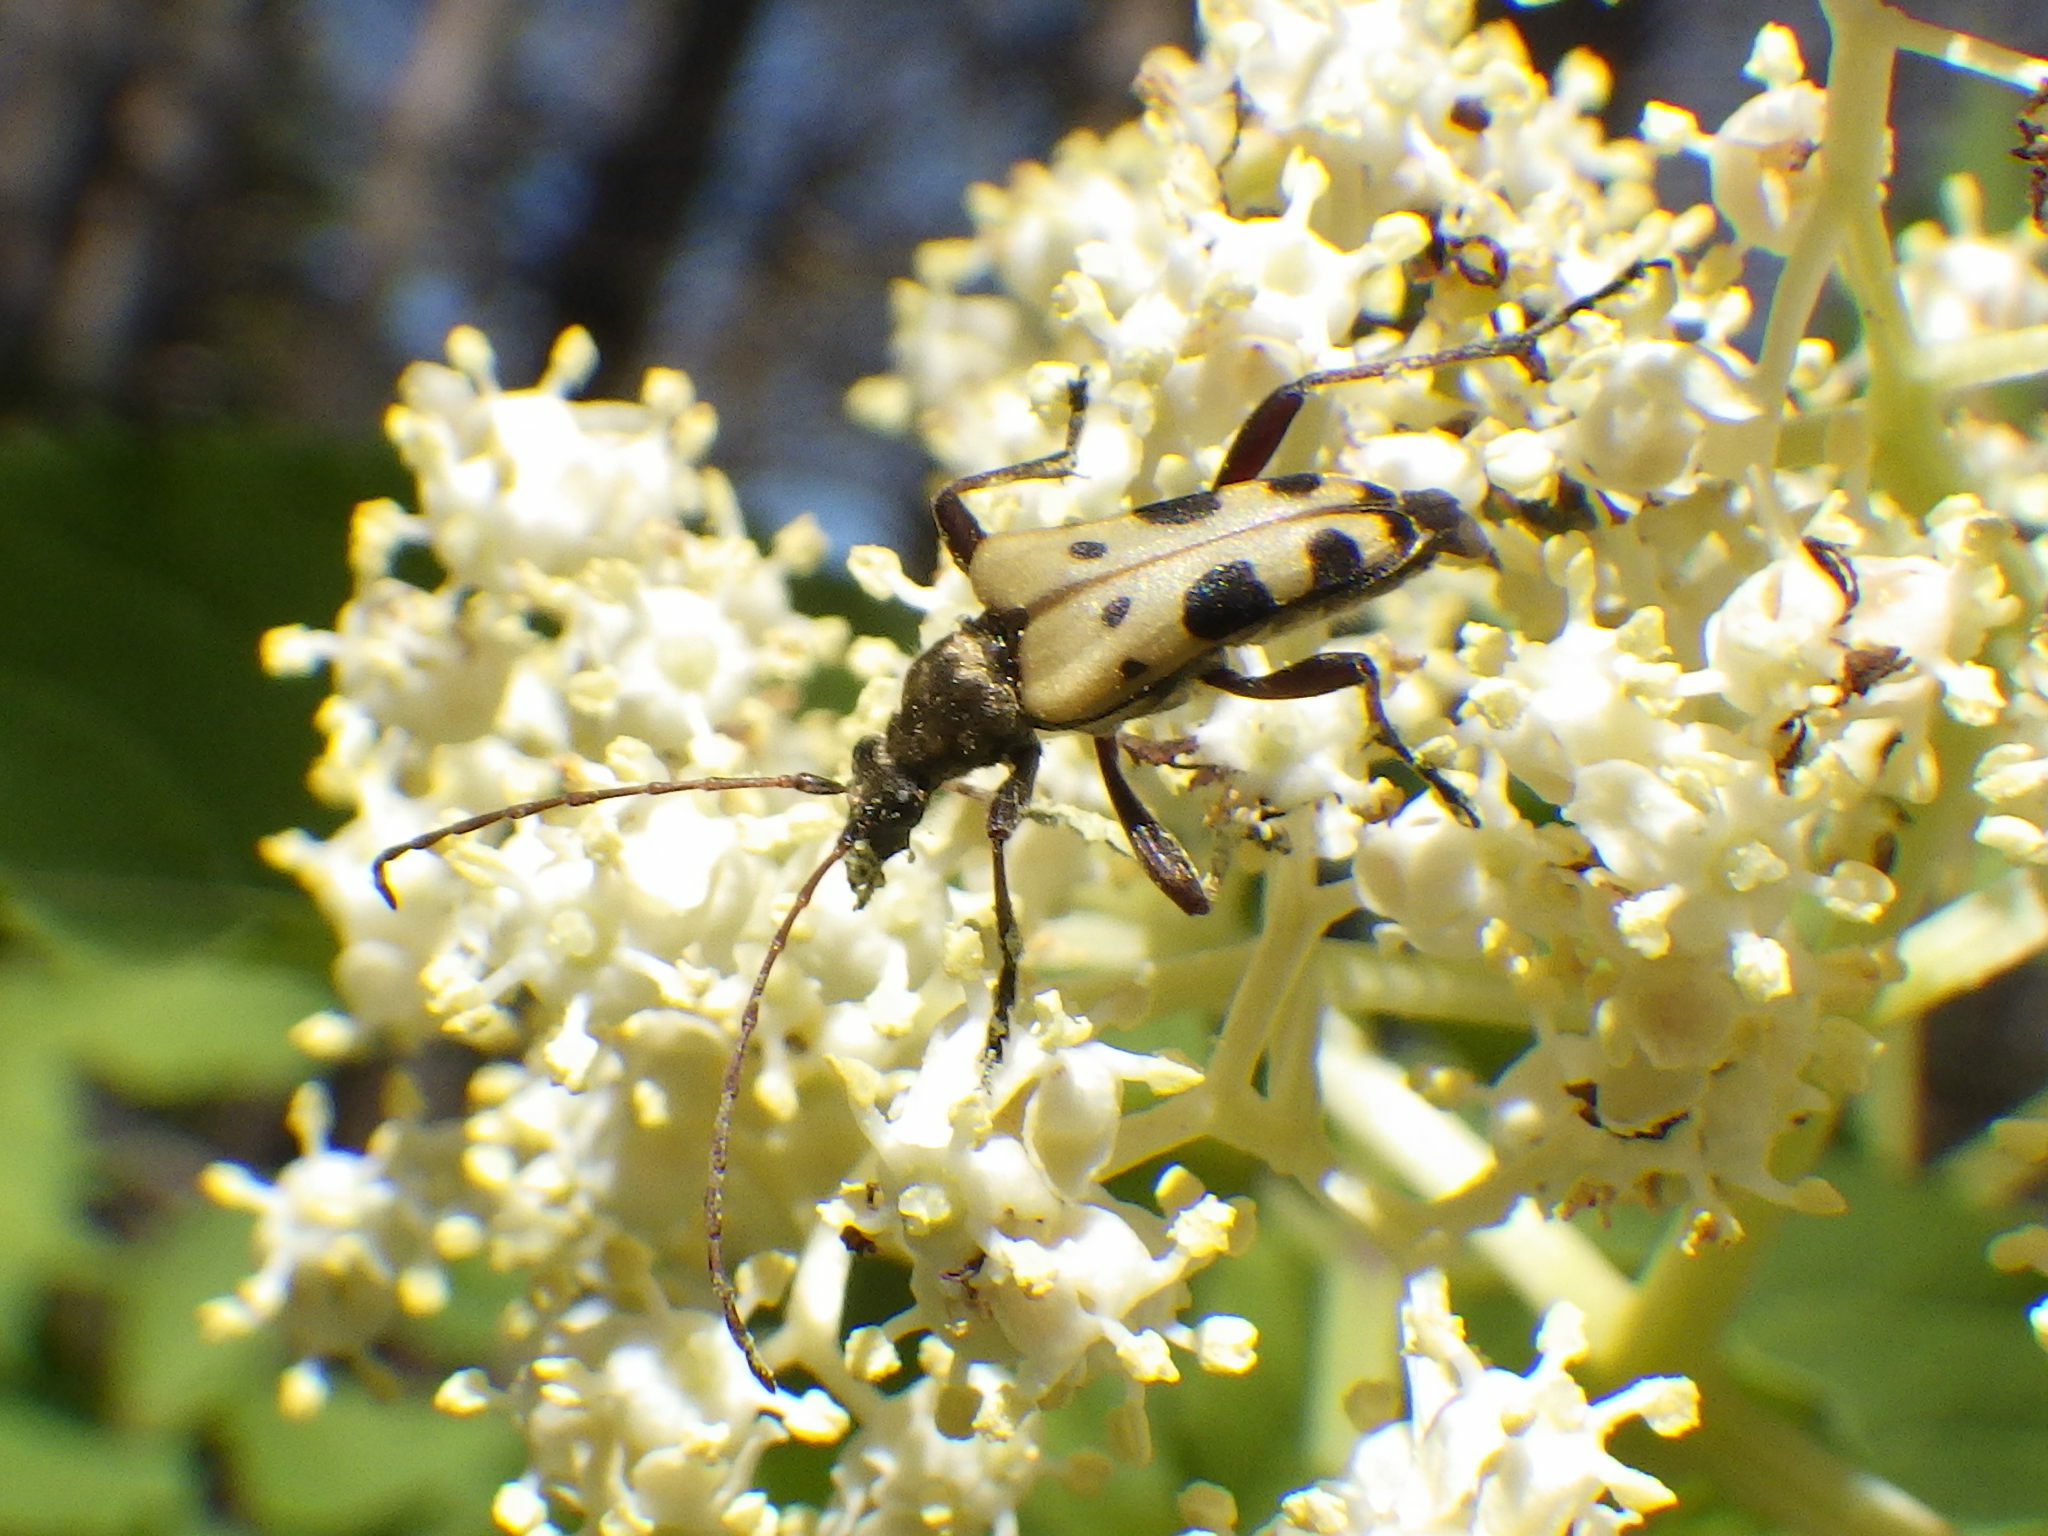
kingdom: Animalia
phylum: Arthropoda
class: Insecta
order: Coleoptera
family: Cerambycidae
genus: Evodinus
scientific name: Evodinus monticola
